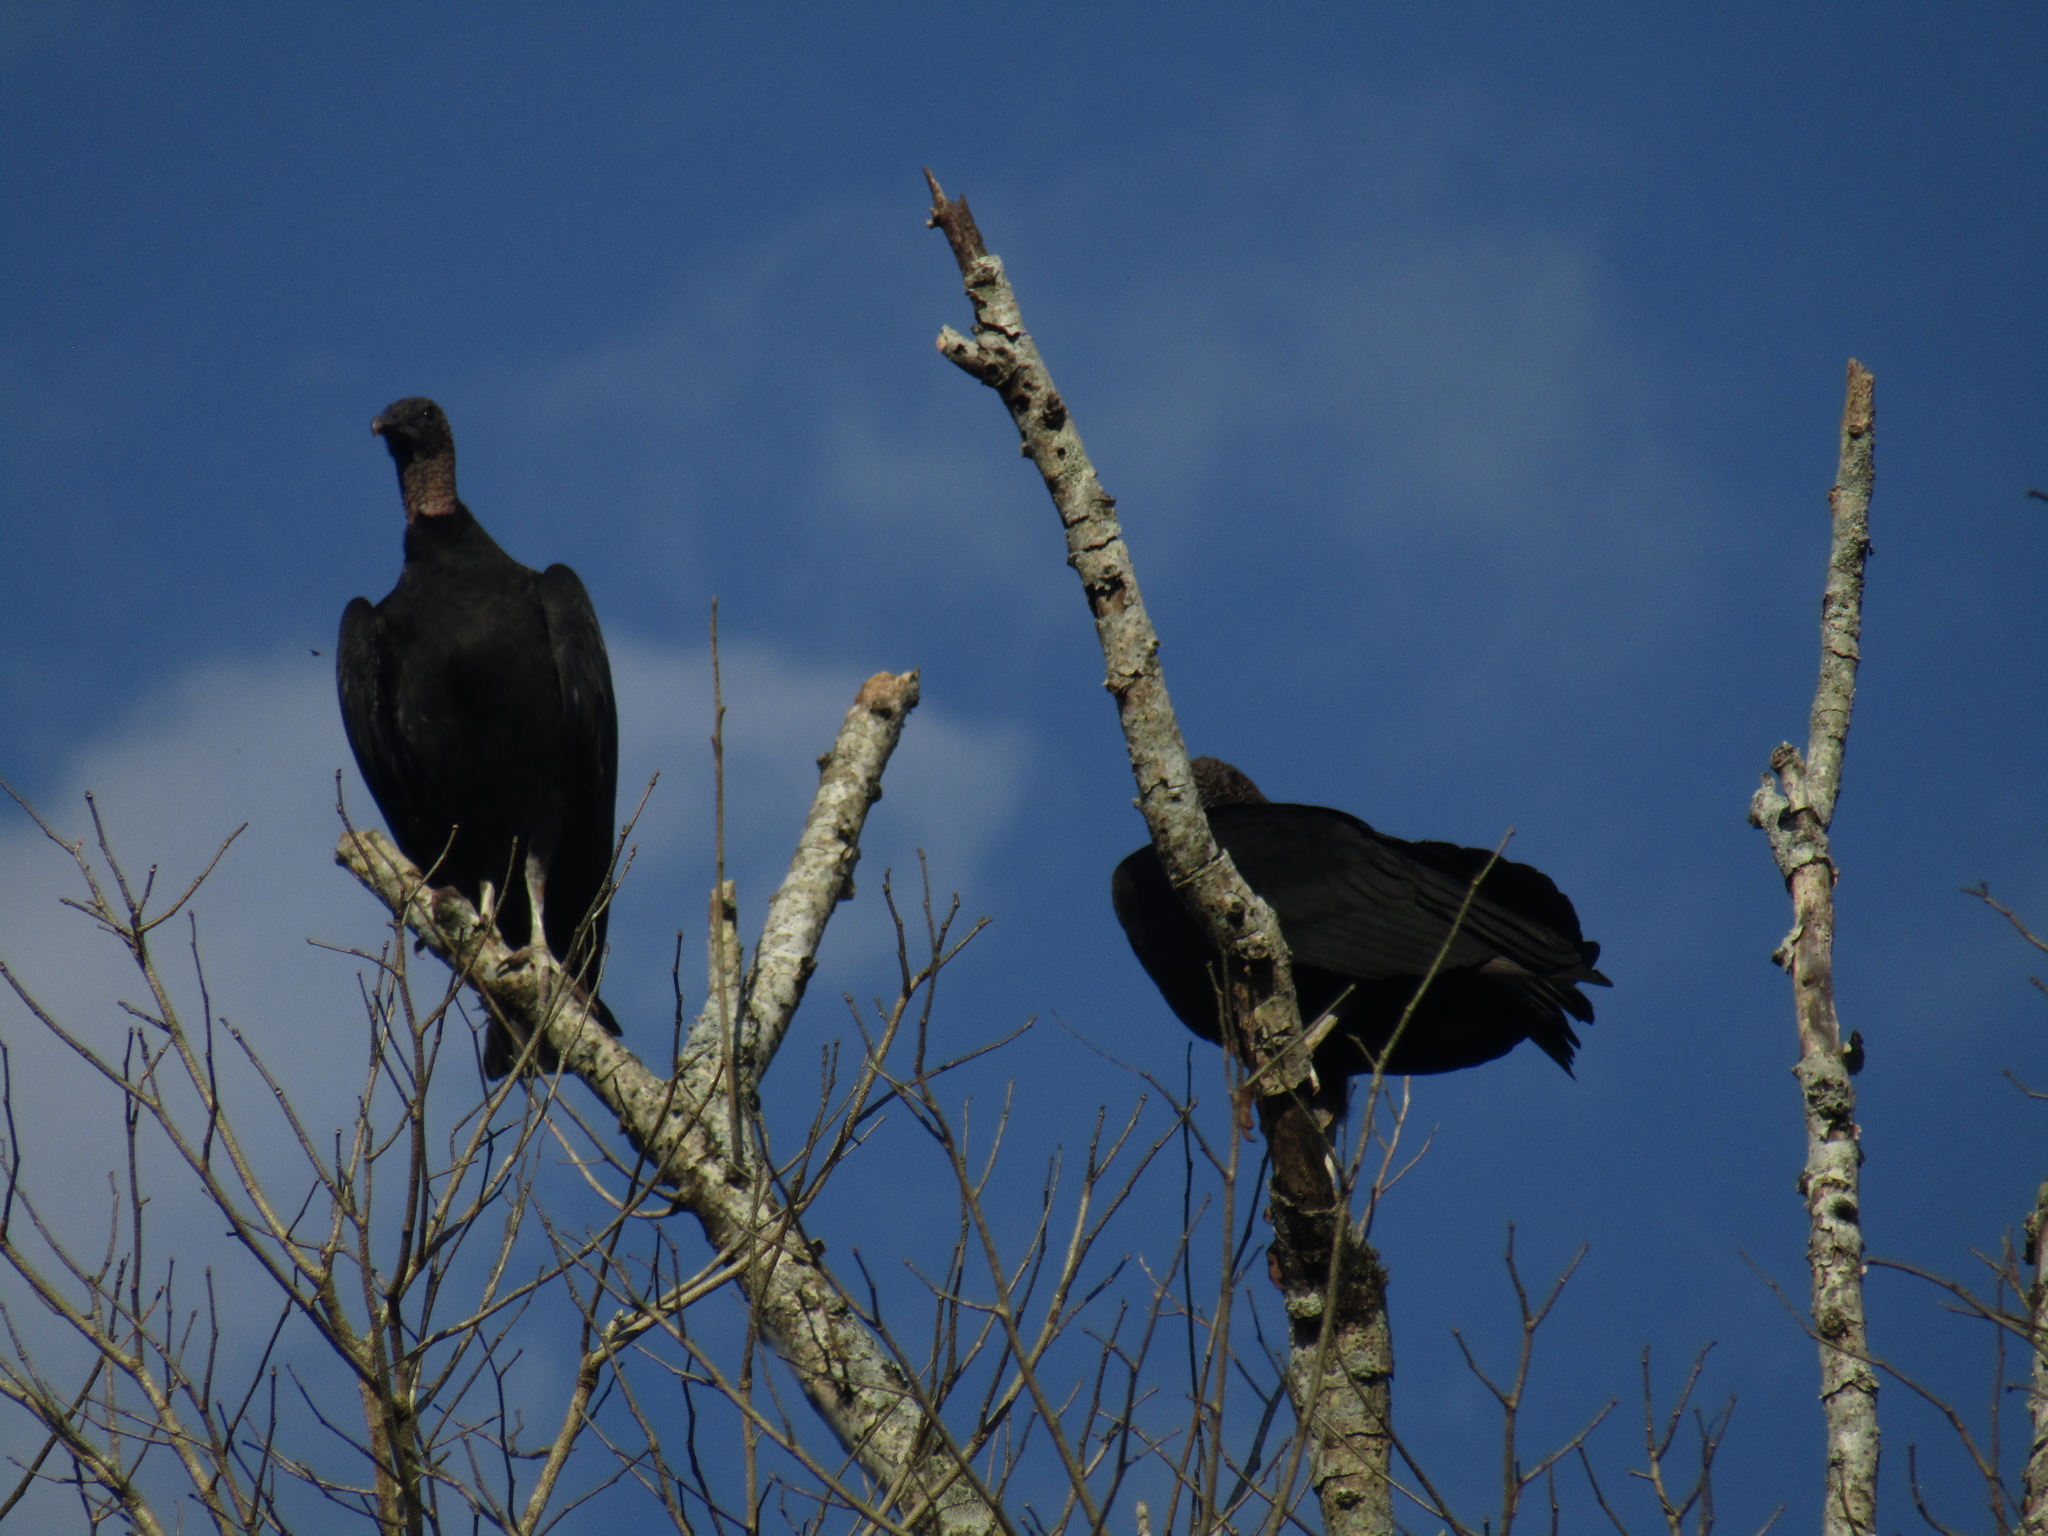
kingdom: Animalia
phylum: Chordata
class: Aves
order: Accipitriformes
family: Cathartidae
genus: Coragyps
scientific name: Coragyps atratus
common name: Black vulture
